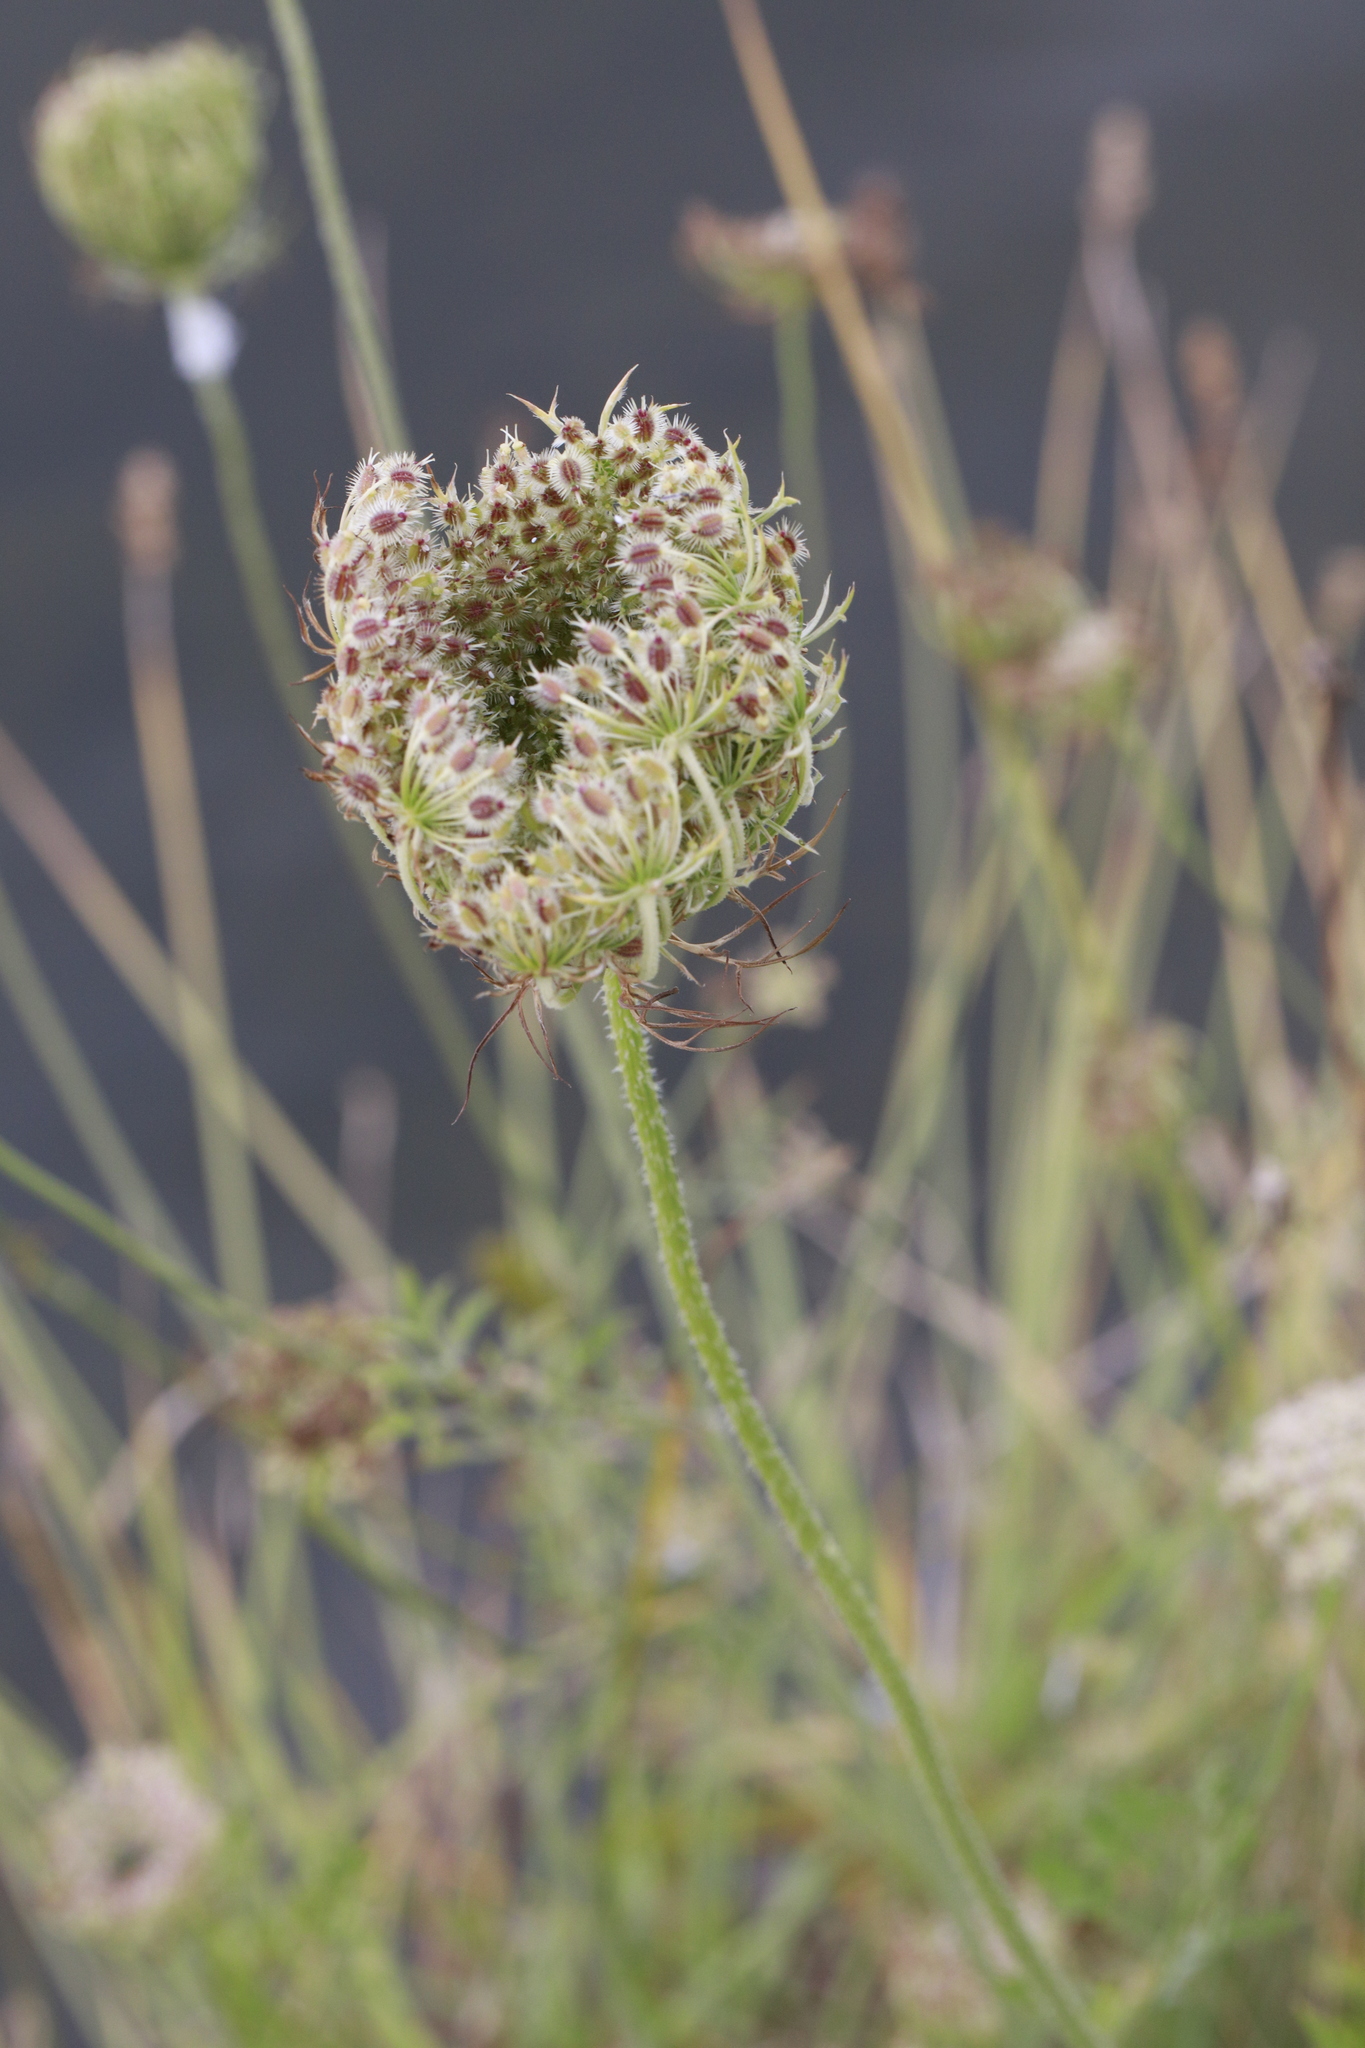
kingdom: Plantae
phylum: Tracheophyta
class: Magnoliopsida
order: Apiales
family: Apiaceae
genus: Daucus
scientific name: Daucus carota
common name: Wild carrot
